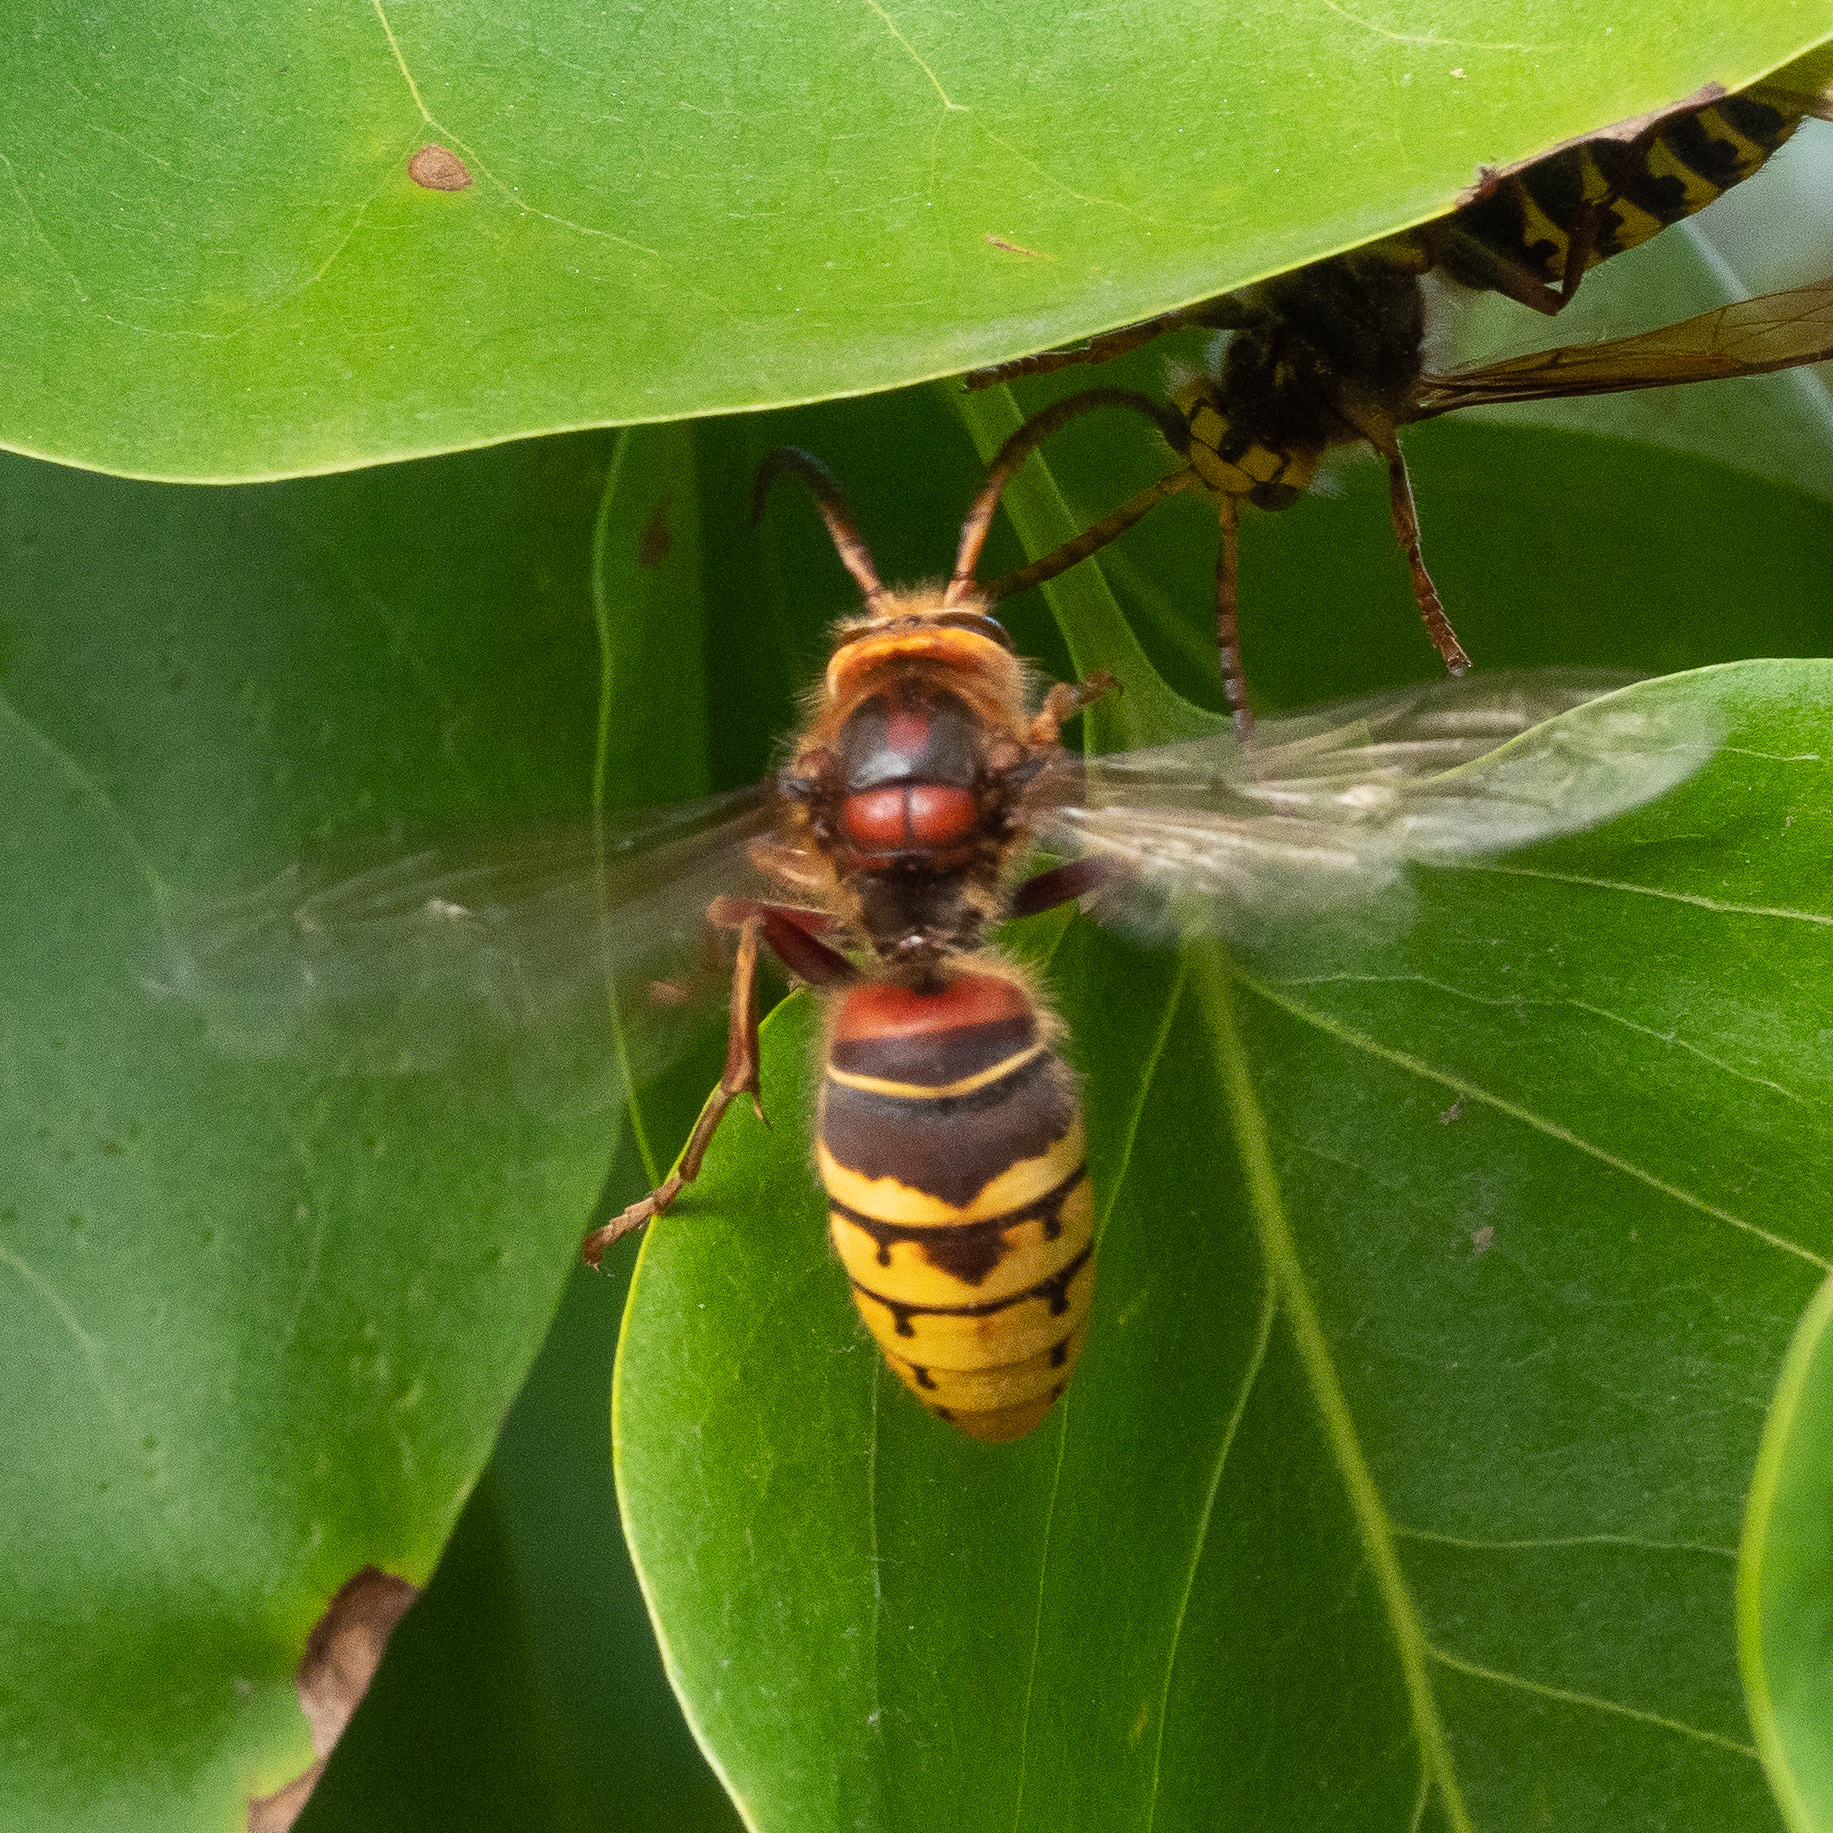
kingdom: Animalia
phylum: Arthropoda
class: Insecta
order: Hymenoptera
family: Vespidae
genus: Vespa
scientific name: Vespa crabro
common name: Hornet
